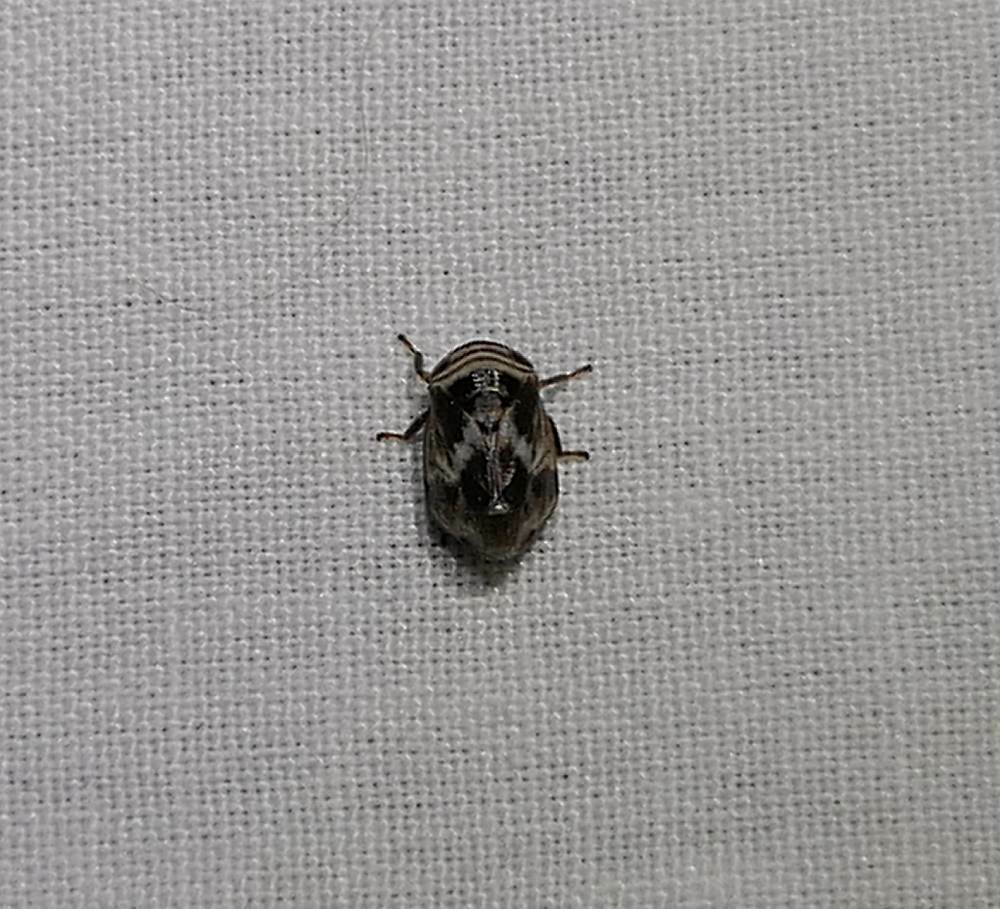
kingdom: Animalia
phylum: Arthropoda
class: Insecta
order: Hemiptera
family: Clastopteridae
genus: Clastoptera
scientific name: Clastoptera obtusa
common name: Alder spittlebug
